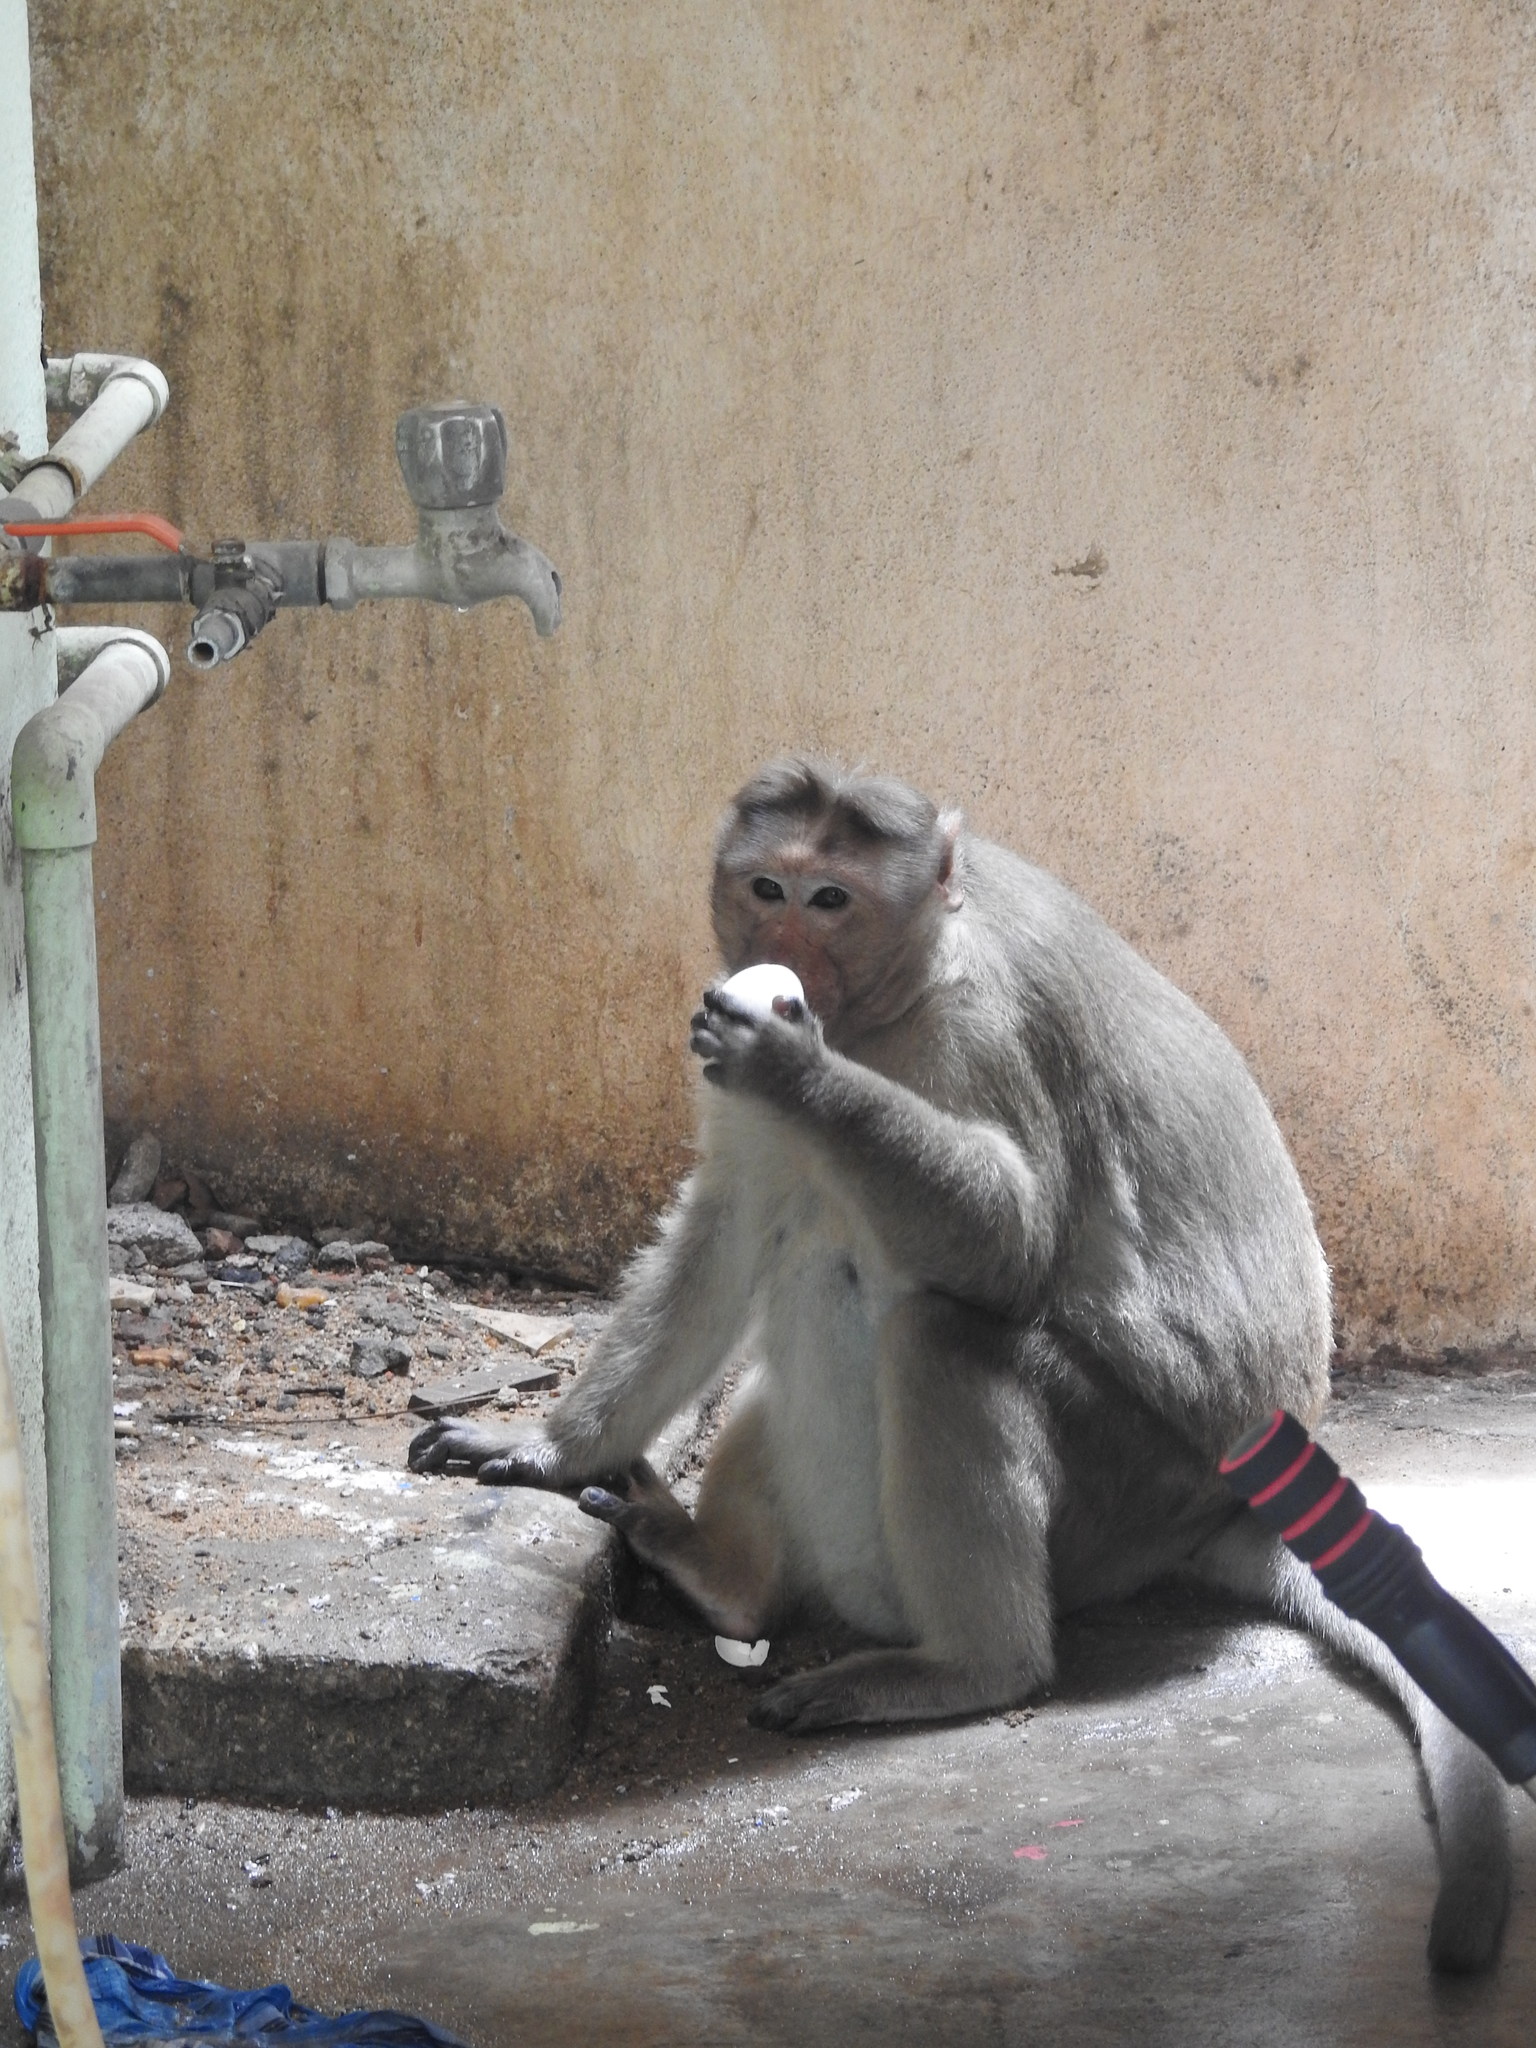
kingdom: Animalia
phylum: Chordata
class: Mammalia
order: Primates
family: Cercopithecidae
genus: Macaca
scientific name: Macaca radiata
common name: Bonnet macaque
